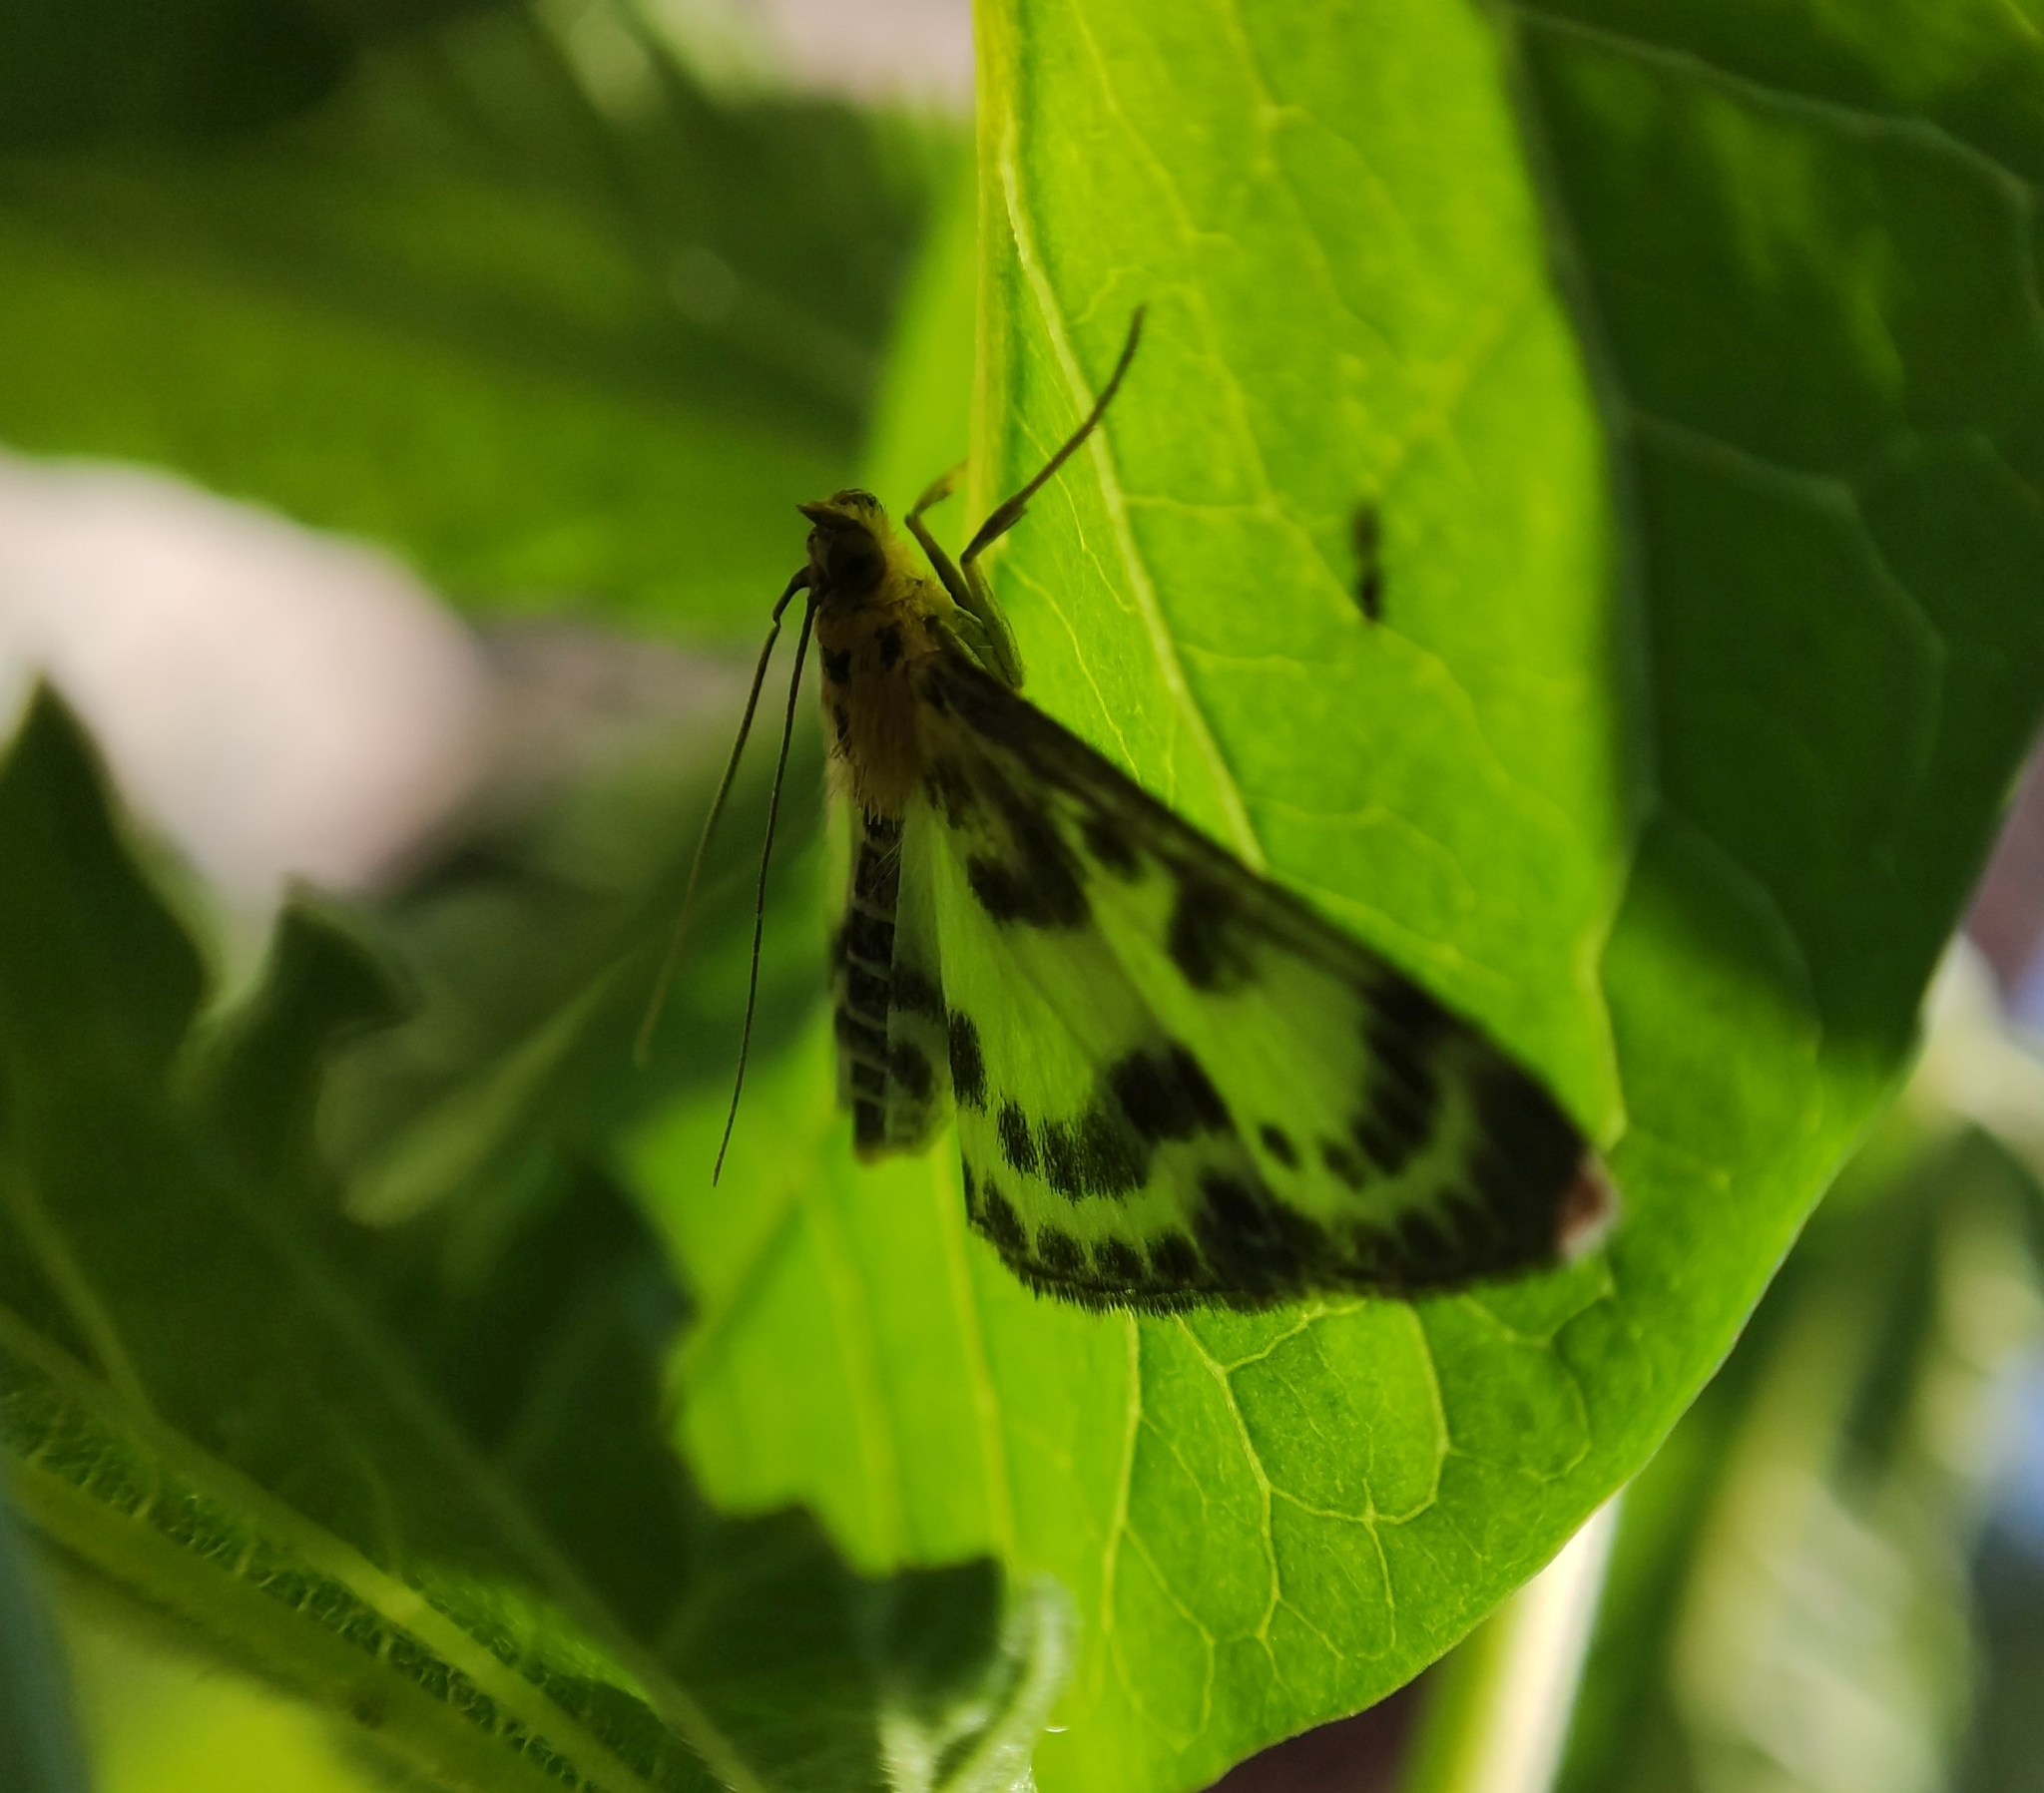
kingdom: Animalia
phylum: Arthropoda
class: Insecta
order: Lepidoptera
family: Crambidae
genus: Anania
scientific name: Anania hortulata
